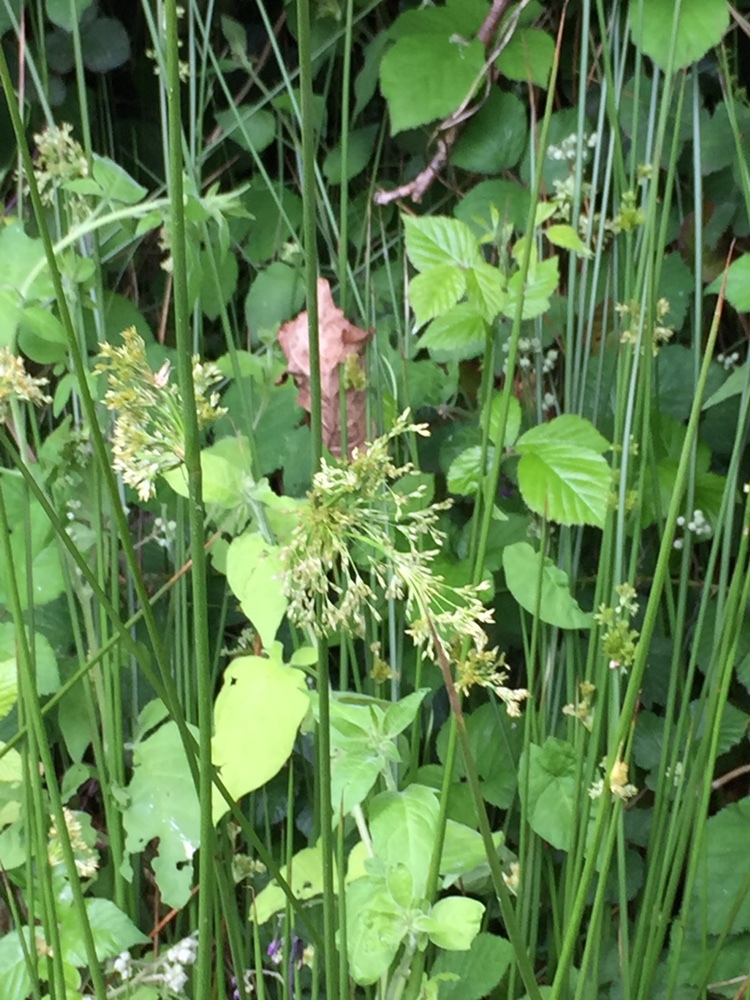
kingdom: Plantae
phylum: Tracheophyta
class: Liliopsida
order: Poales
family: Juncaceae
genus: Juncus
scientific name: Juncus effusus
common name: Soft rush
